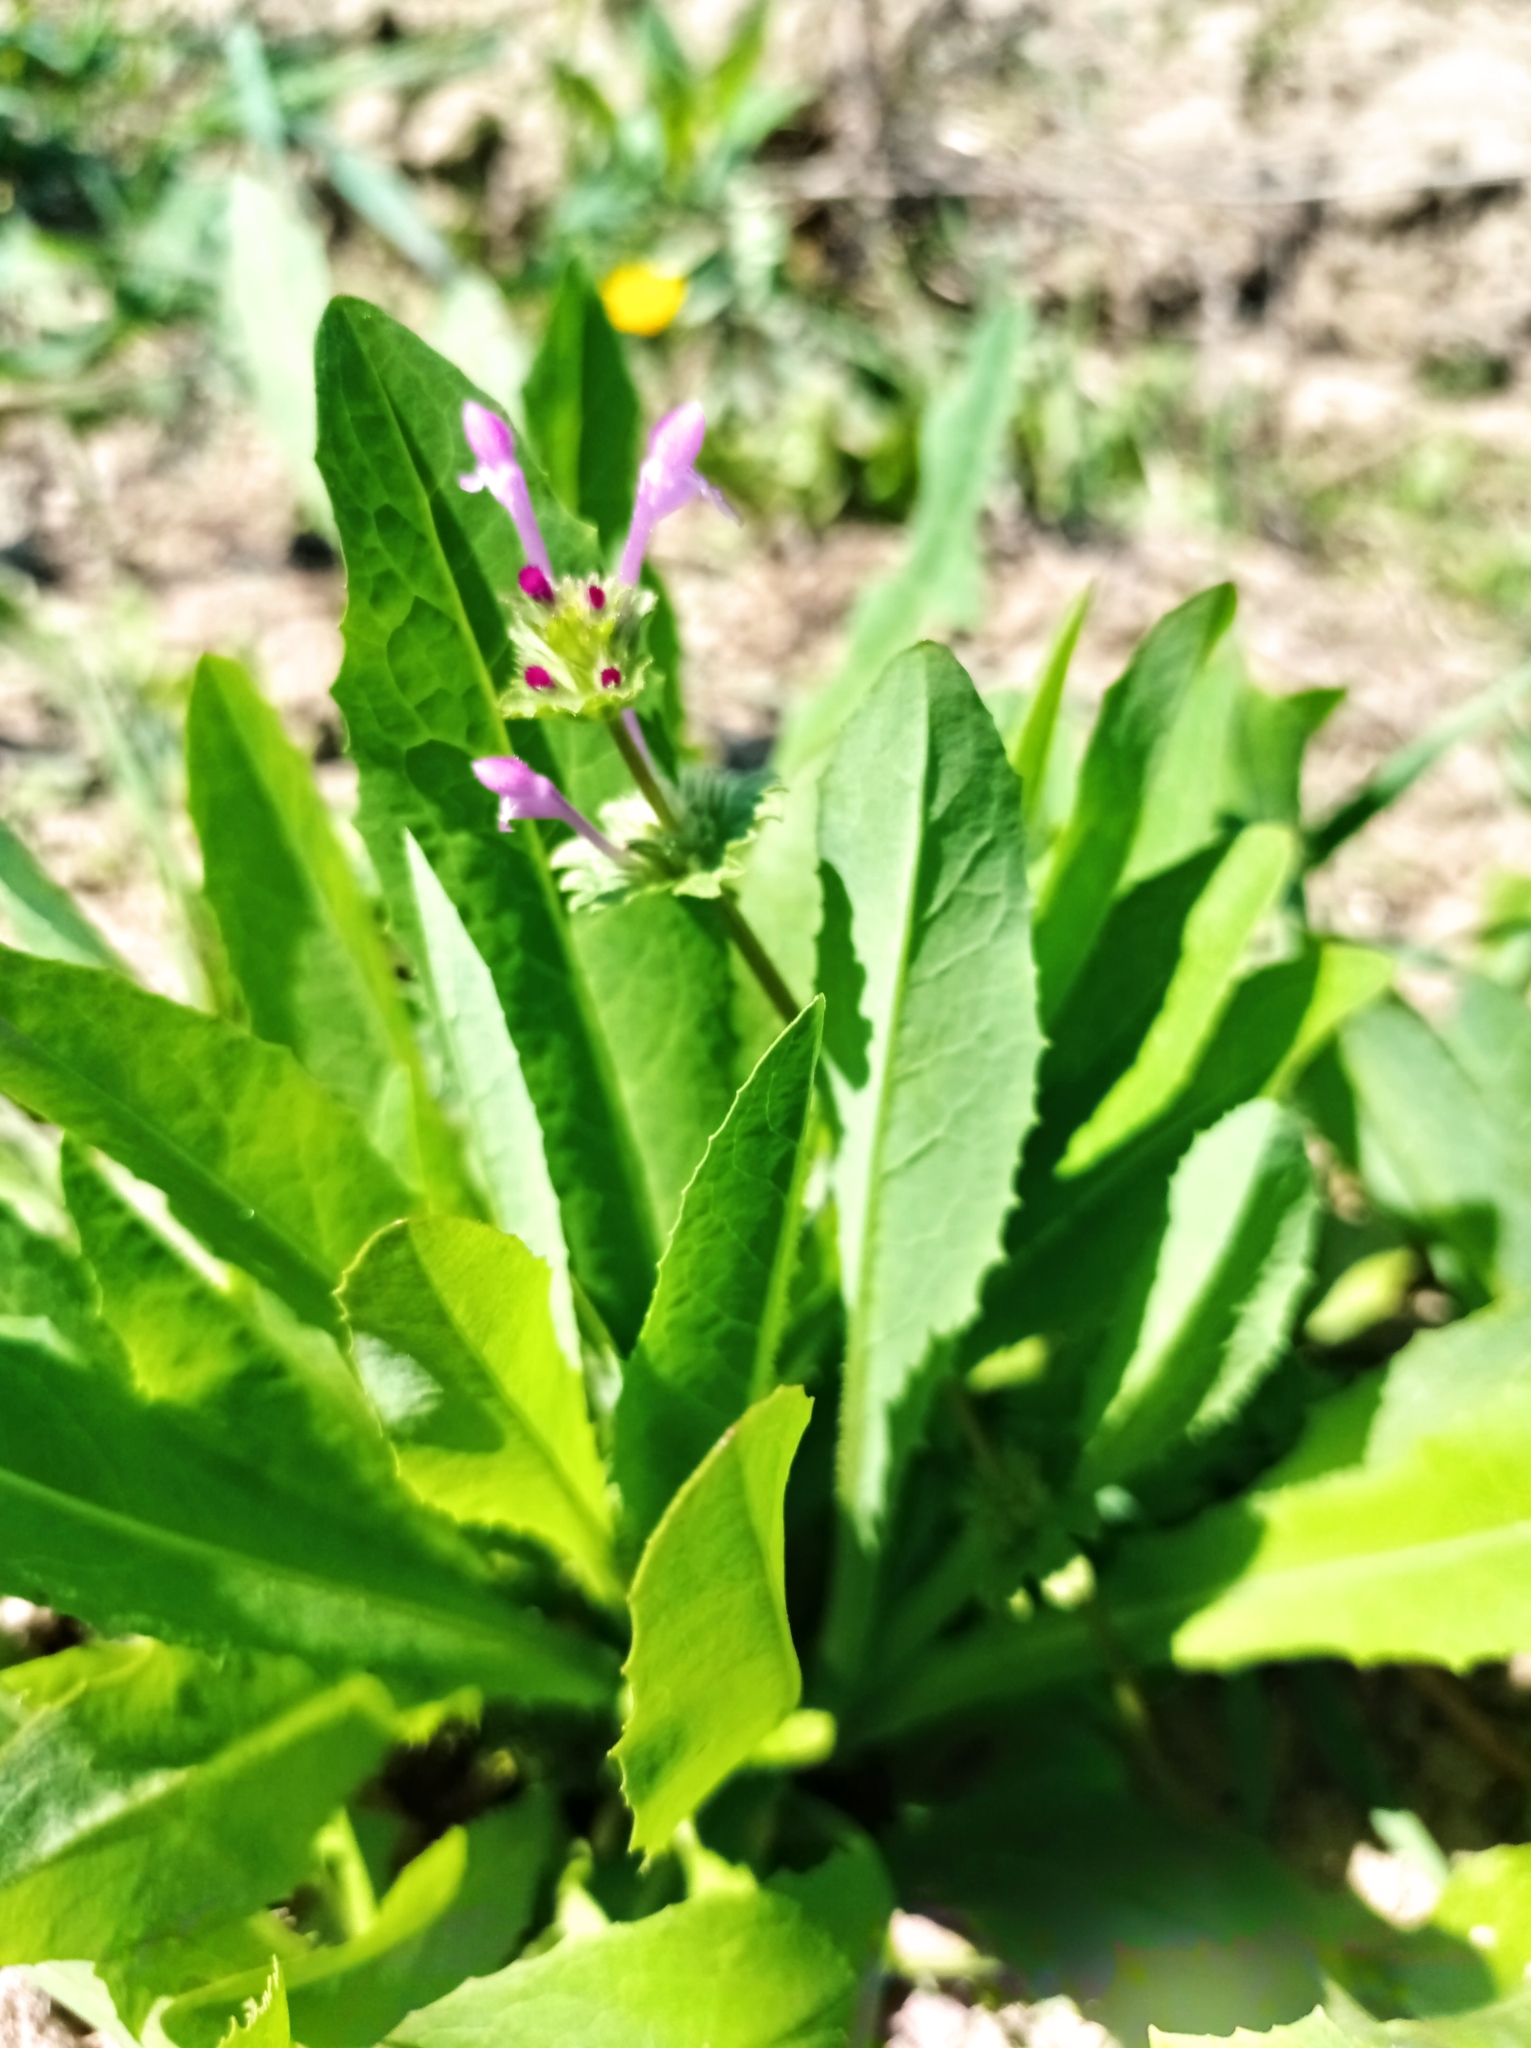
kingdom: Plantae
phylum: Tracheophyta
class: Magnoliopsida
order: Lamiales
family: Lamiaceae
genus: Lamium
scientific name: Lamium amplexicaule
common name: Henbit dead-nettle
